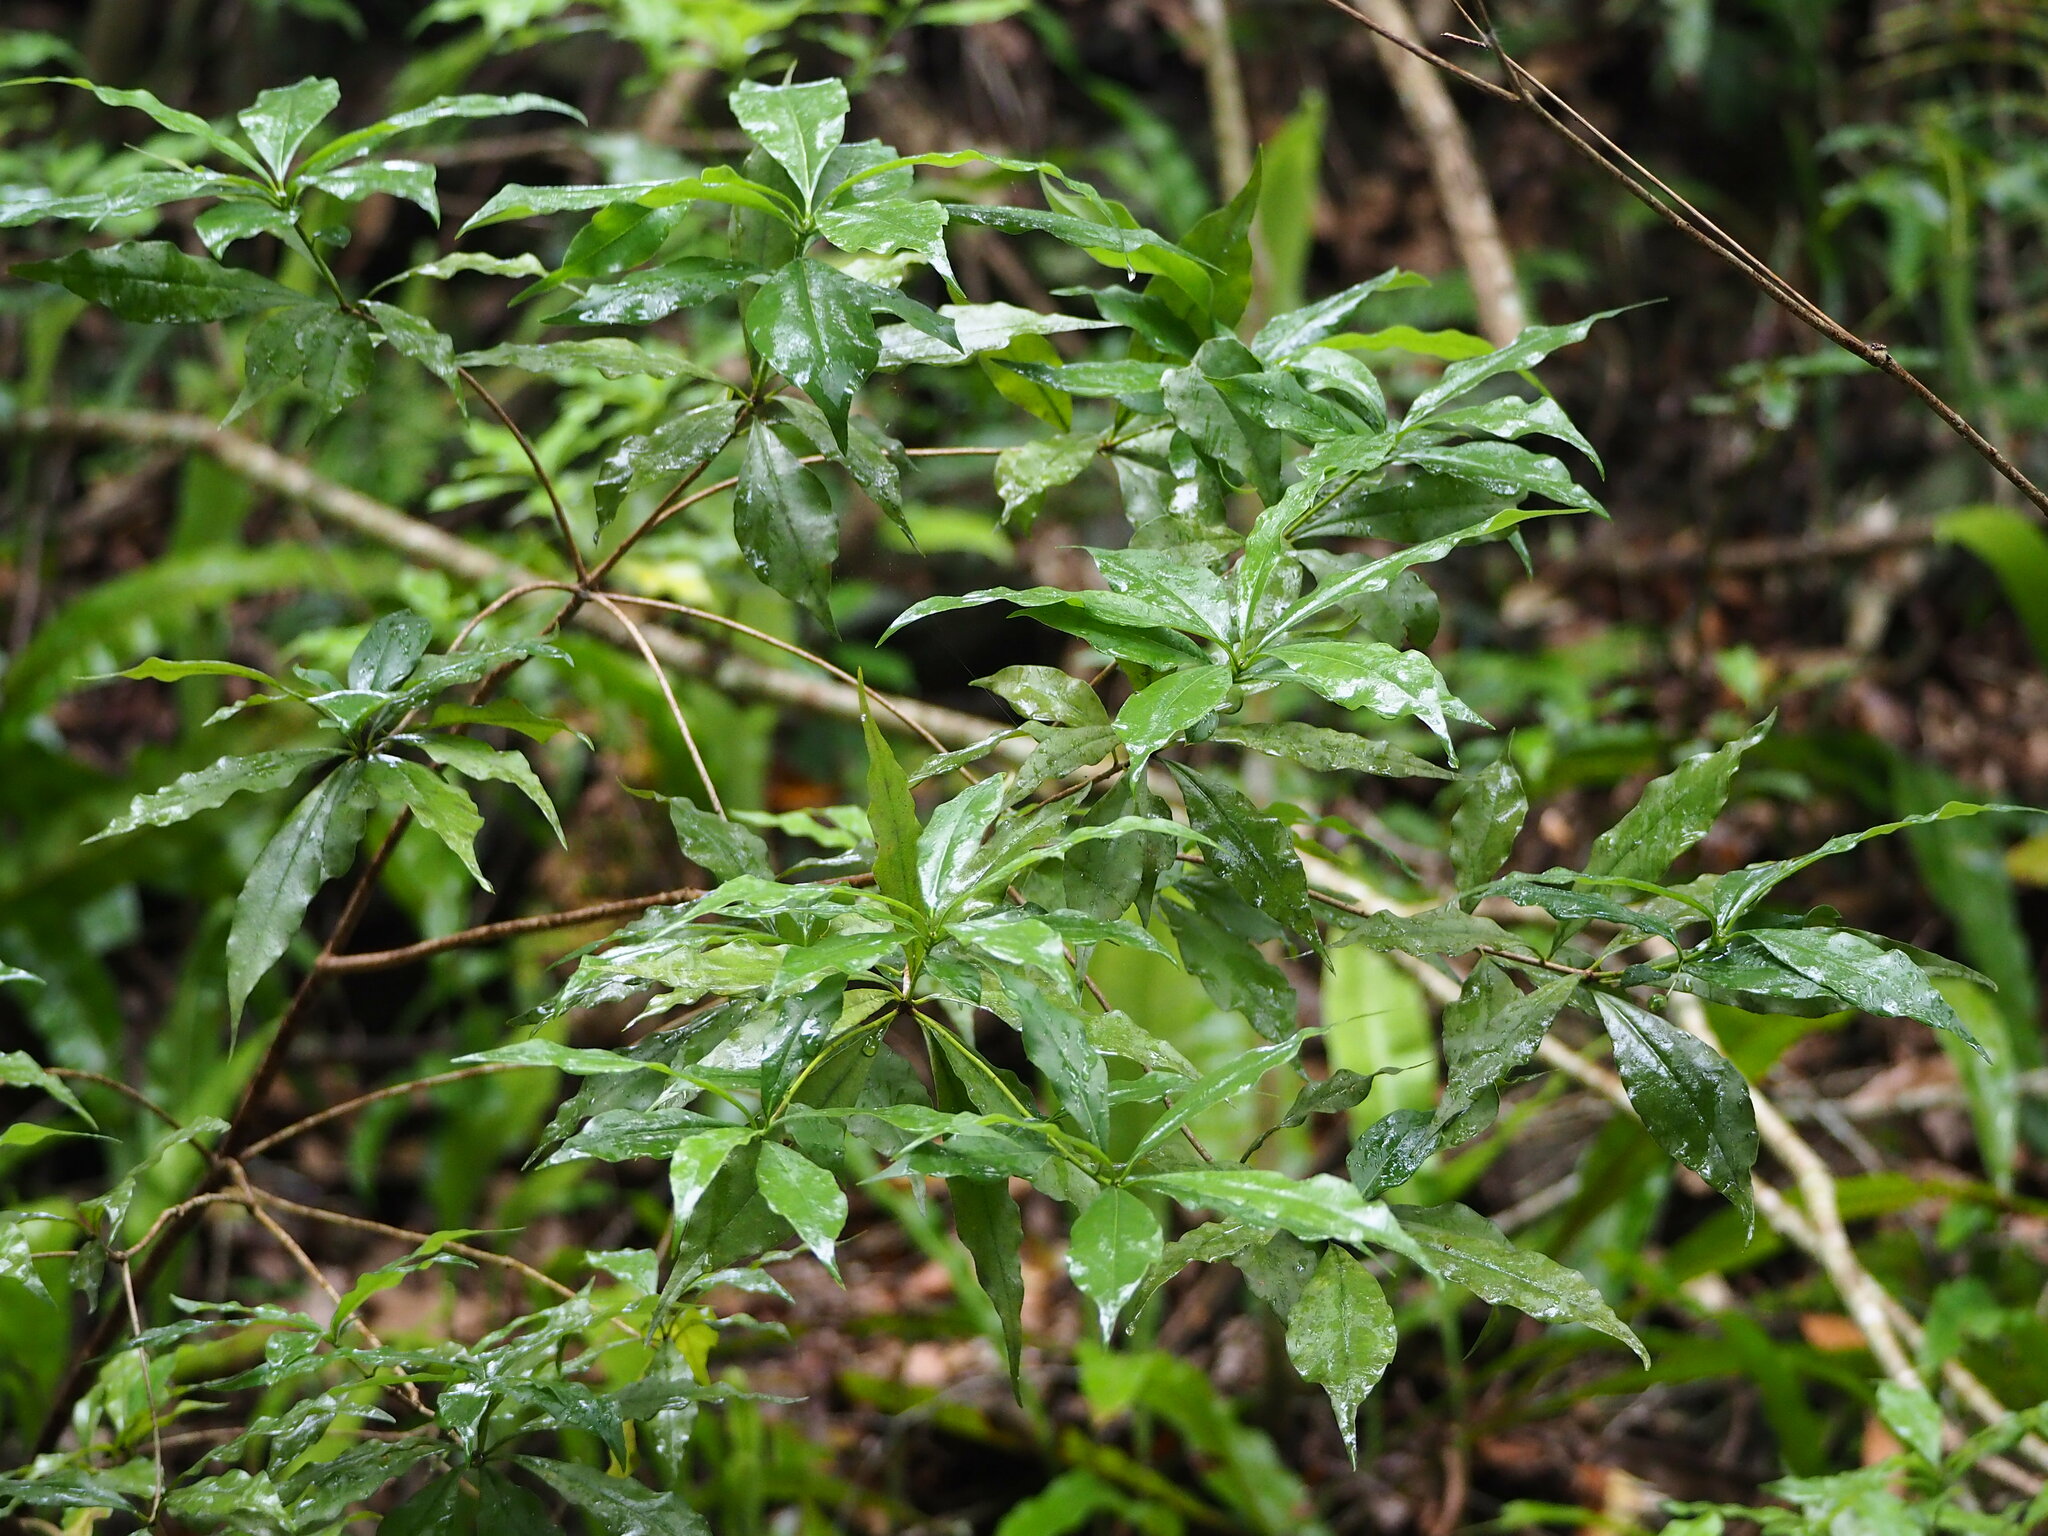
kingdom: Plantae
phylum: Tracheophyta
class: Magnoliopsida
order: Apiales
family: Pittosporaceae
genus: Pittosporum
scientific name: Pittosporum illicioides
